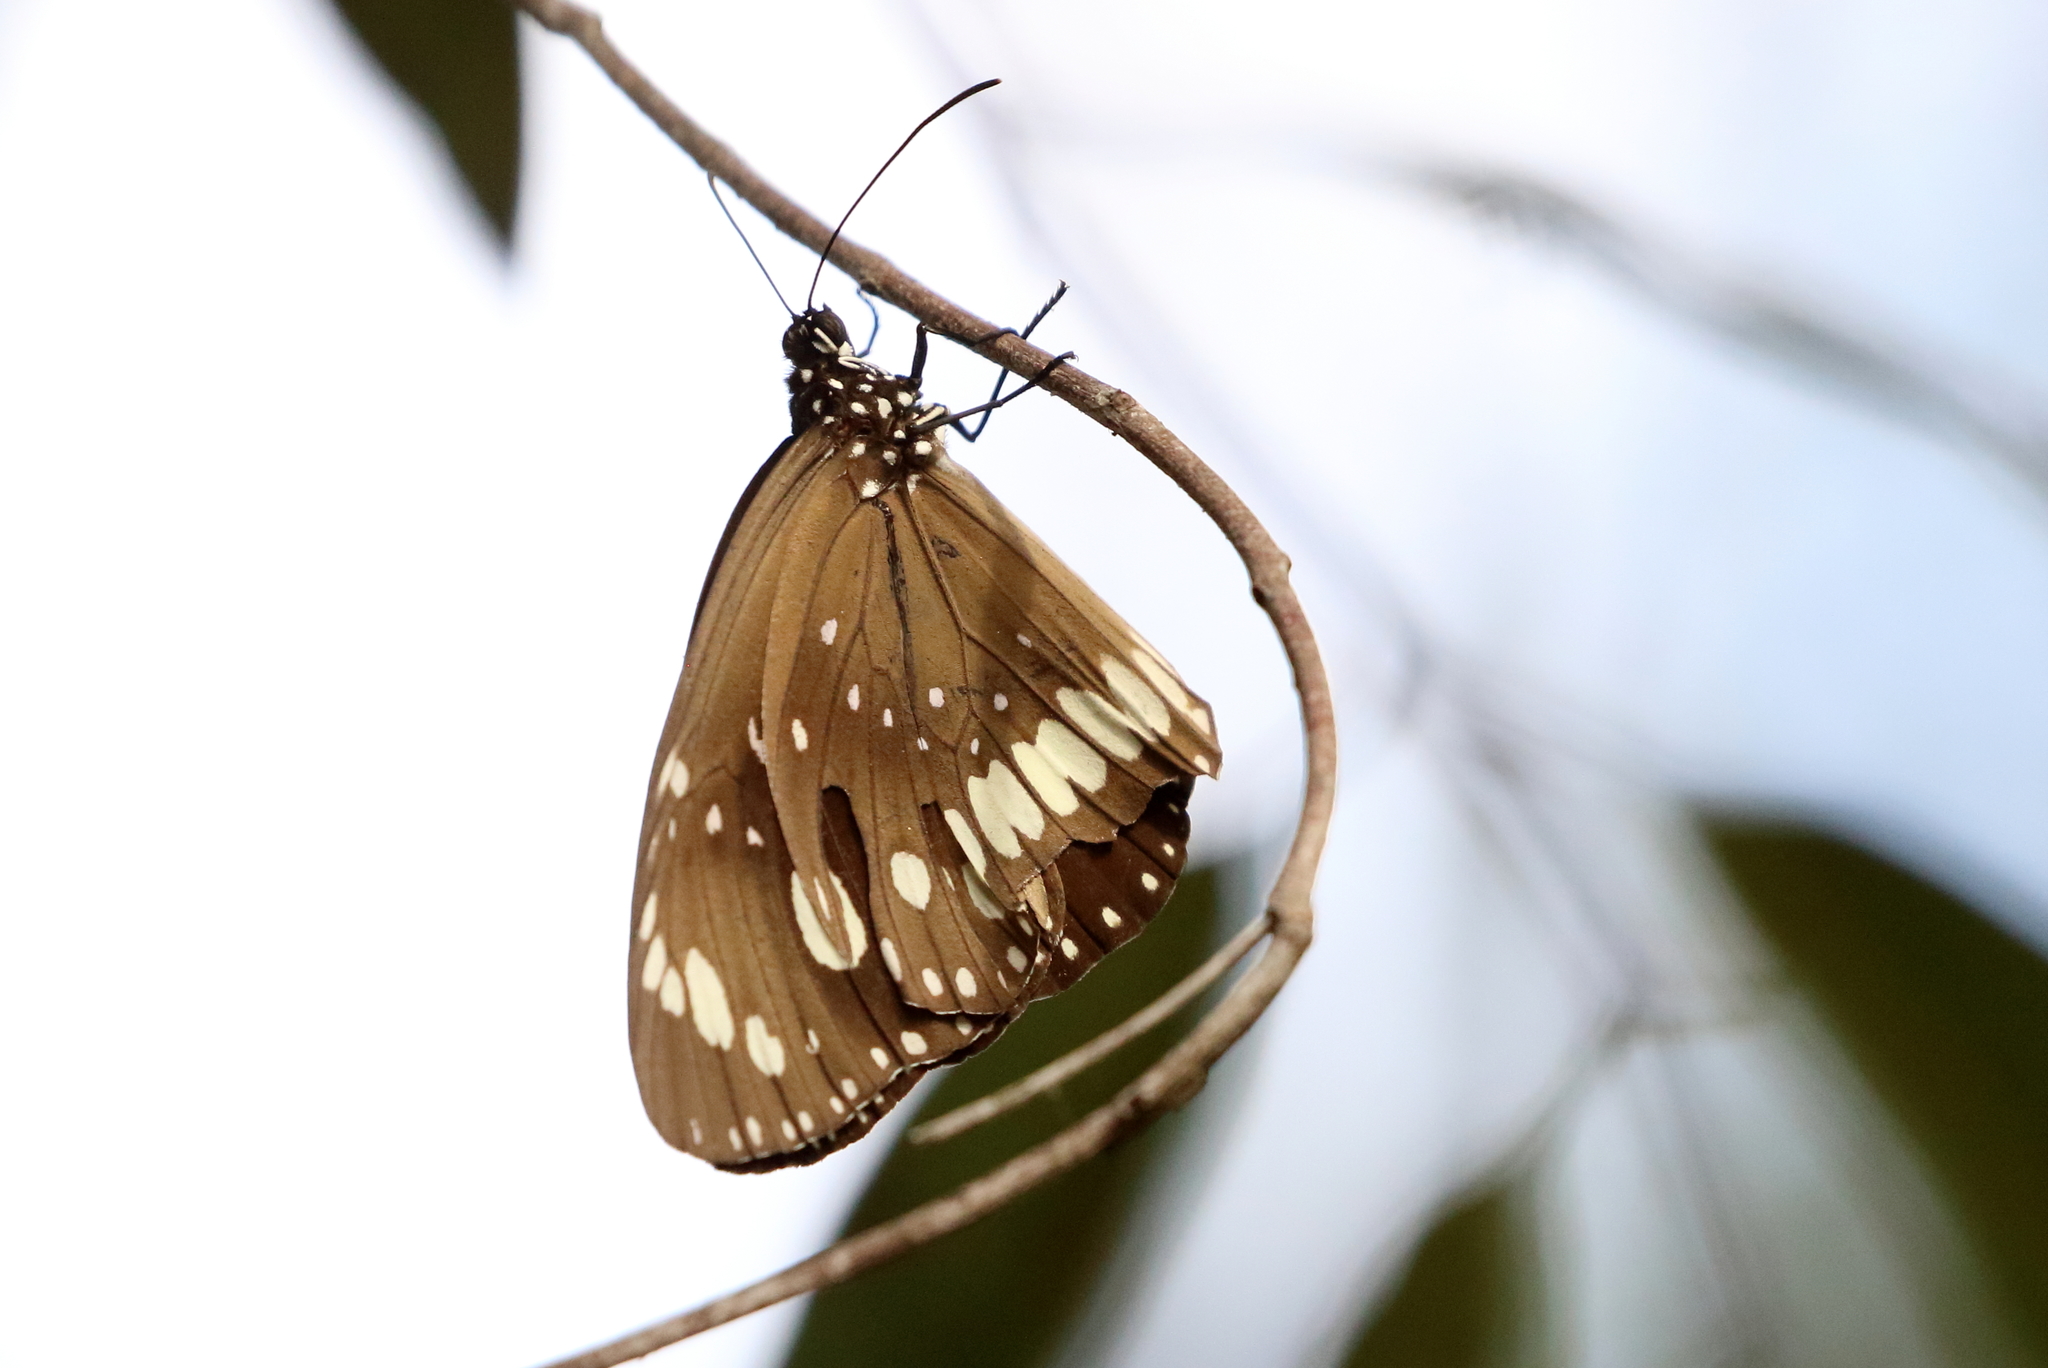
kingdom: Animalia
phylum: Arthropoda
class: Insecta
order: Lepidoptera
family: Nymphalidae
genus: Euploea
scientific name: Euploea core
